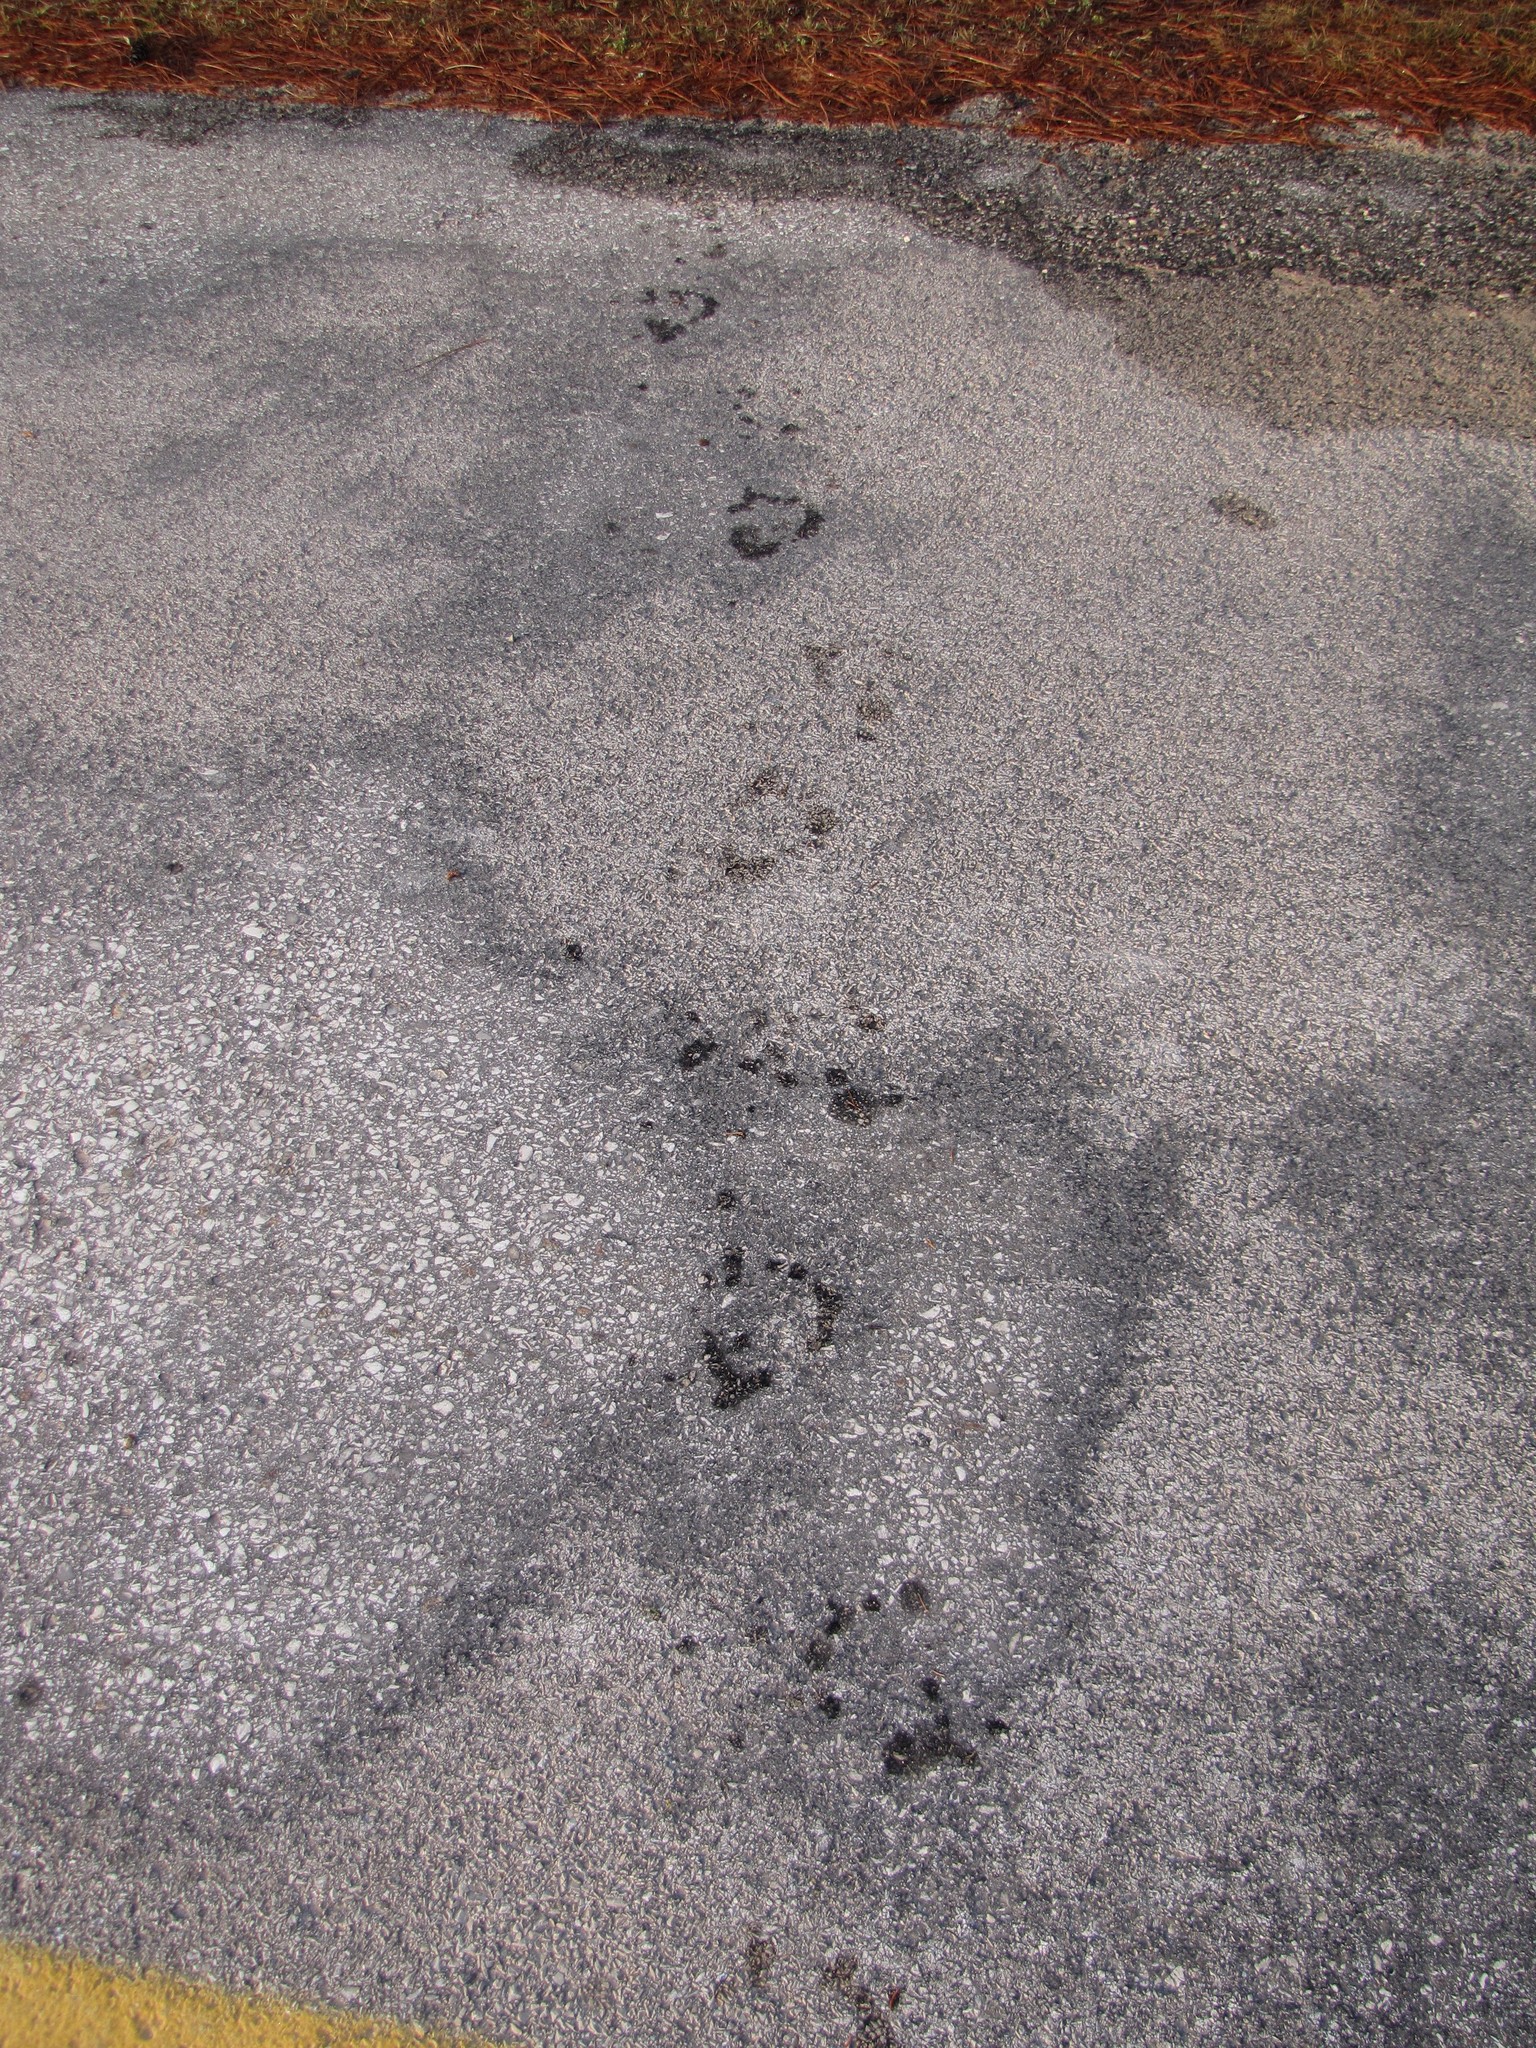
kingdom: Animalia
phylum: Chordata
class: Mammalia
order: Rodentia
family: Castoridae
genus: Castor
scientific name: Castor canadensis
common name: American beaver
